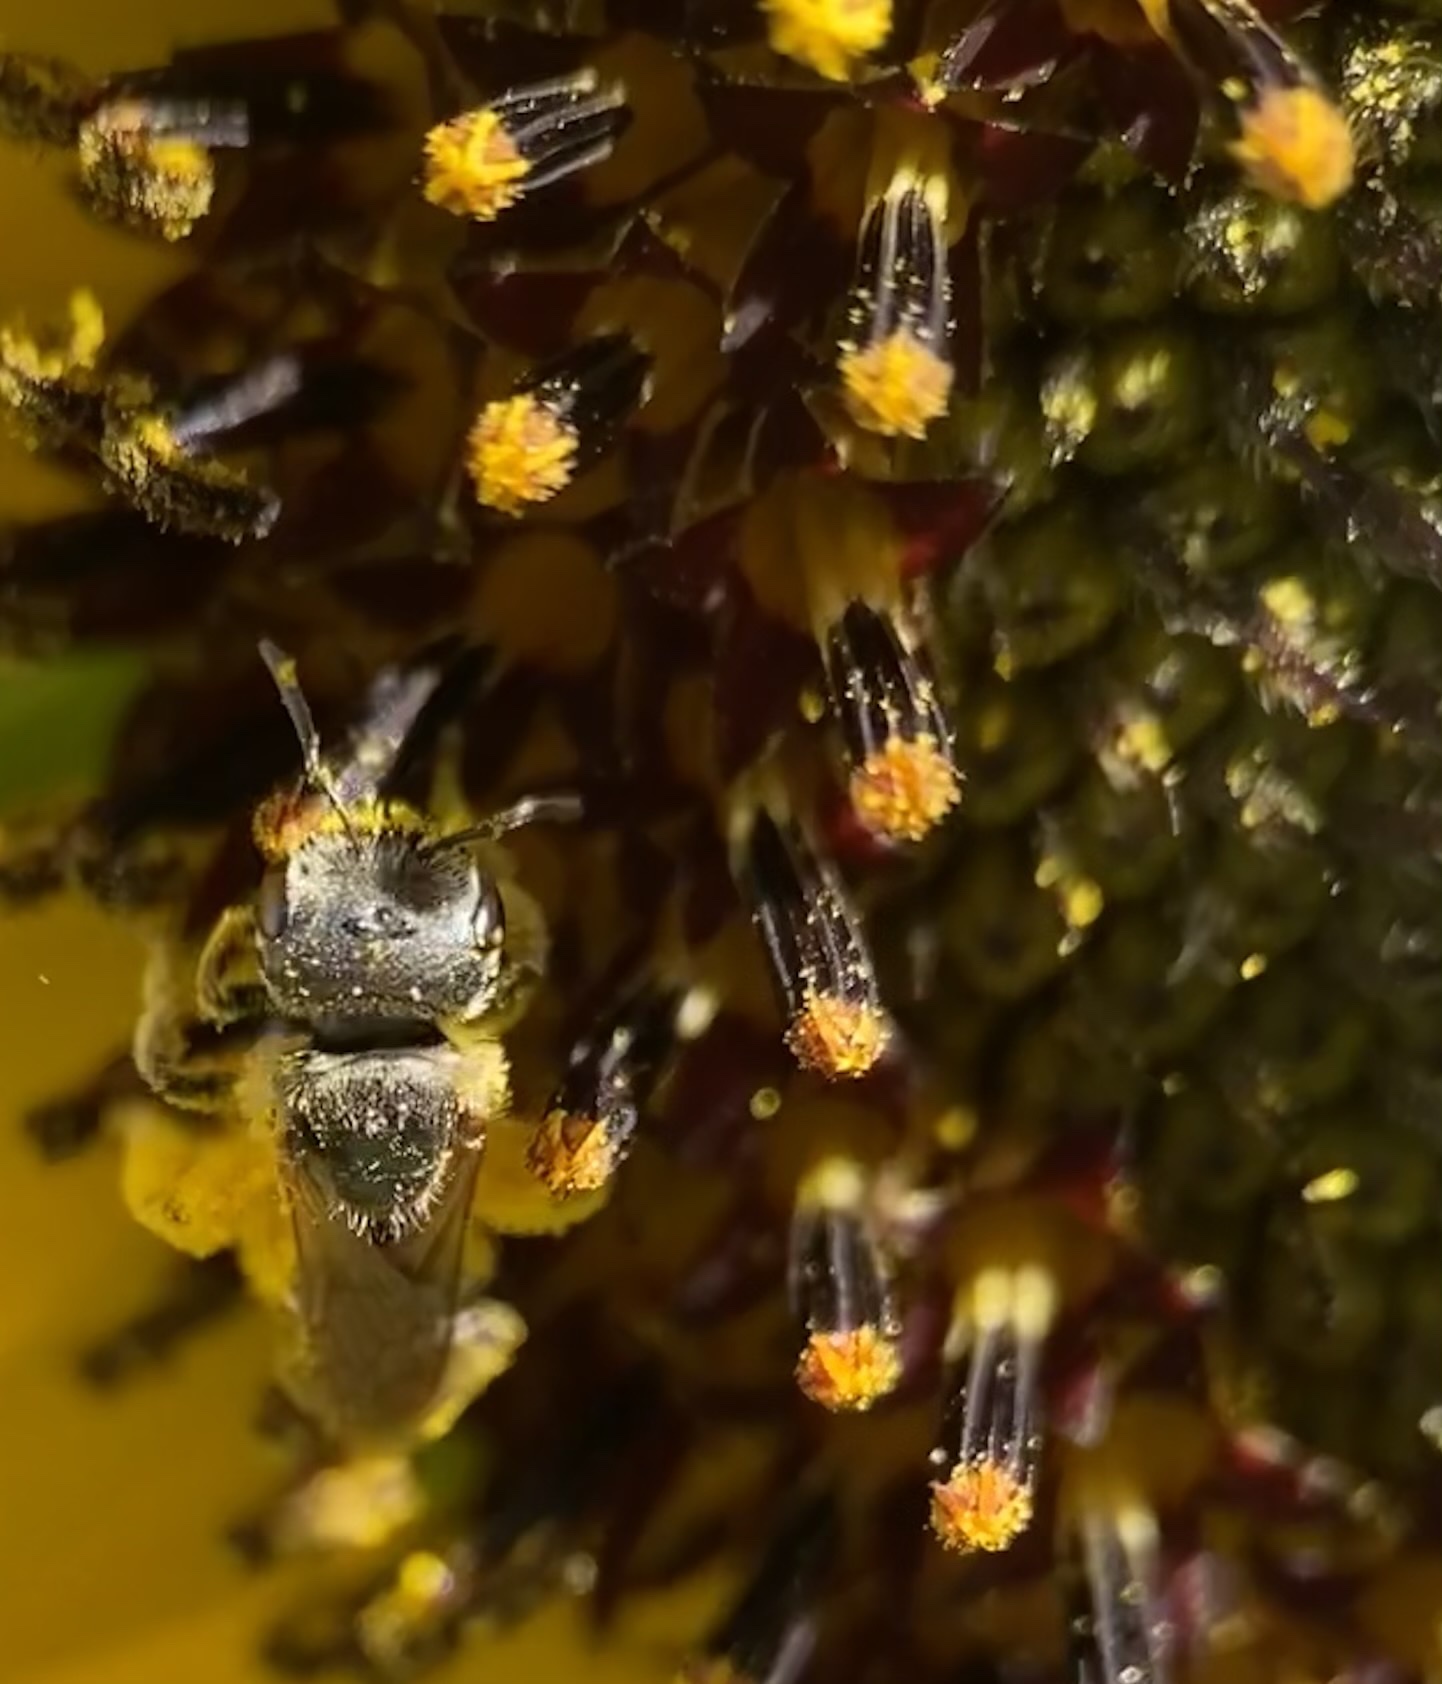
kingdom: Animalia
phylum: Arthropoda
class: Insecta
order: Hymenoptera
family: Halictidae
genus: Halictus
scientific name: Halictus ligatus
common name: Ligated furrow bee
